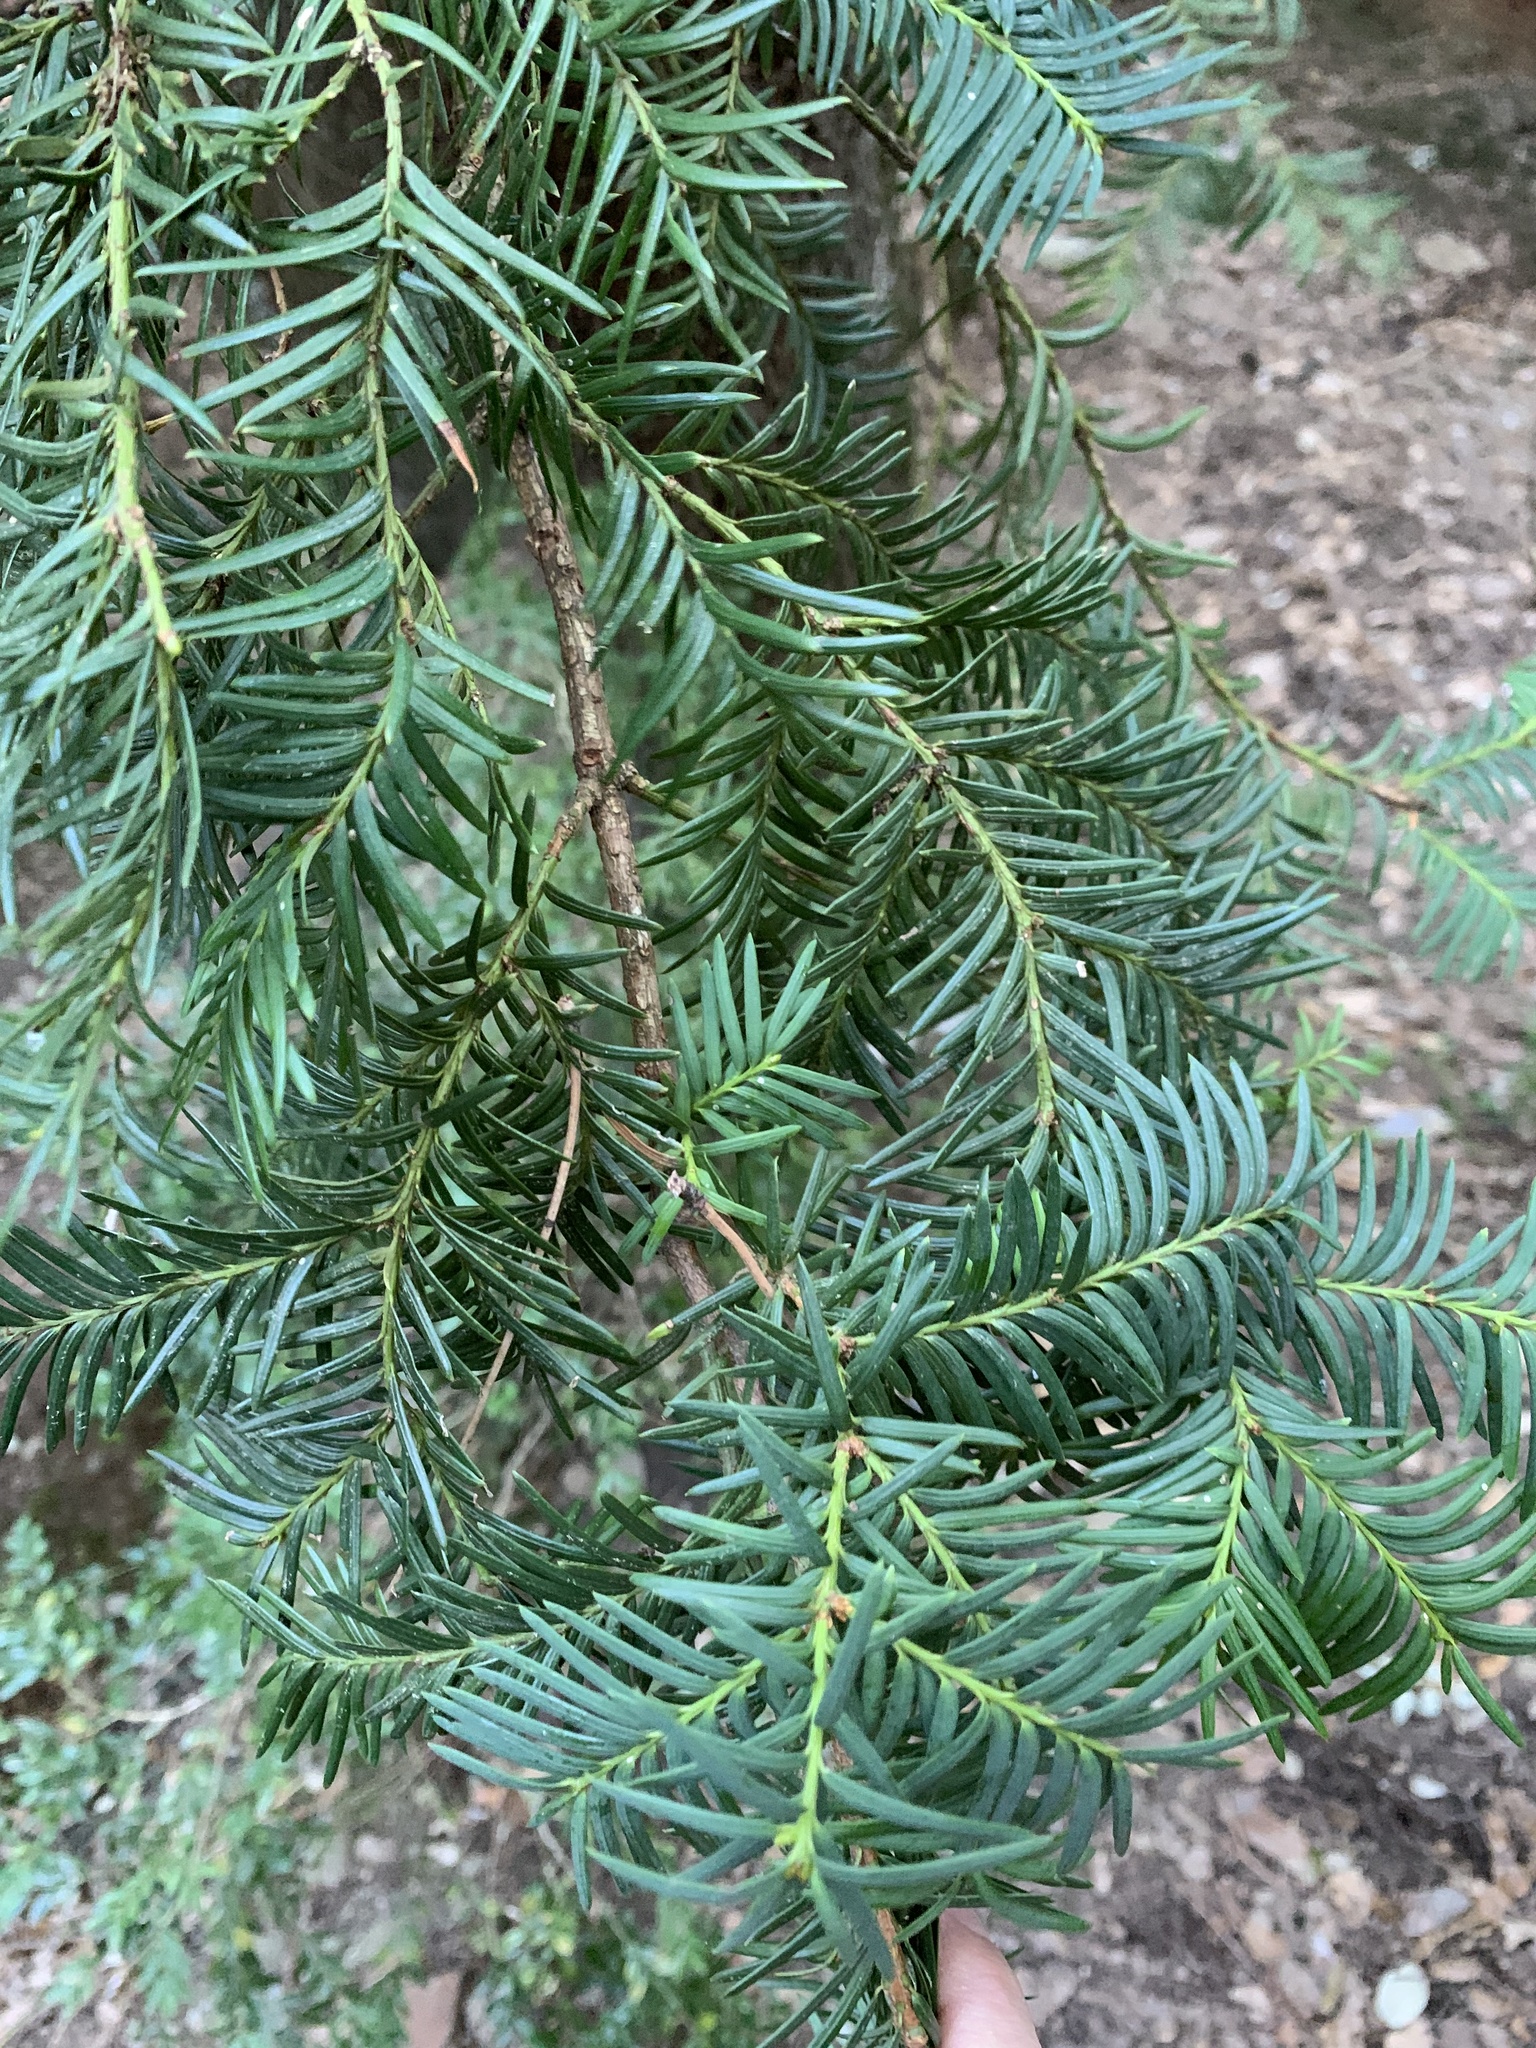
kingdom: Plantae
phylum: Tracheophyta
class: Pinopsida
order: Pinales
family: Taxaceae
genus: Taxus
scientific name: Taxus baccata
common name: Yew
